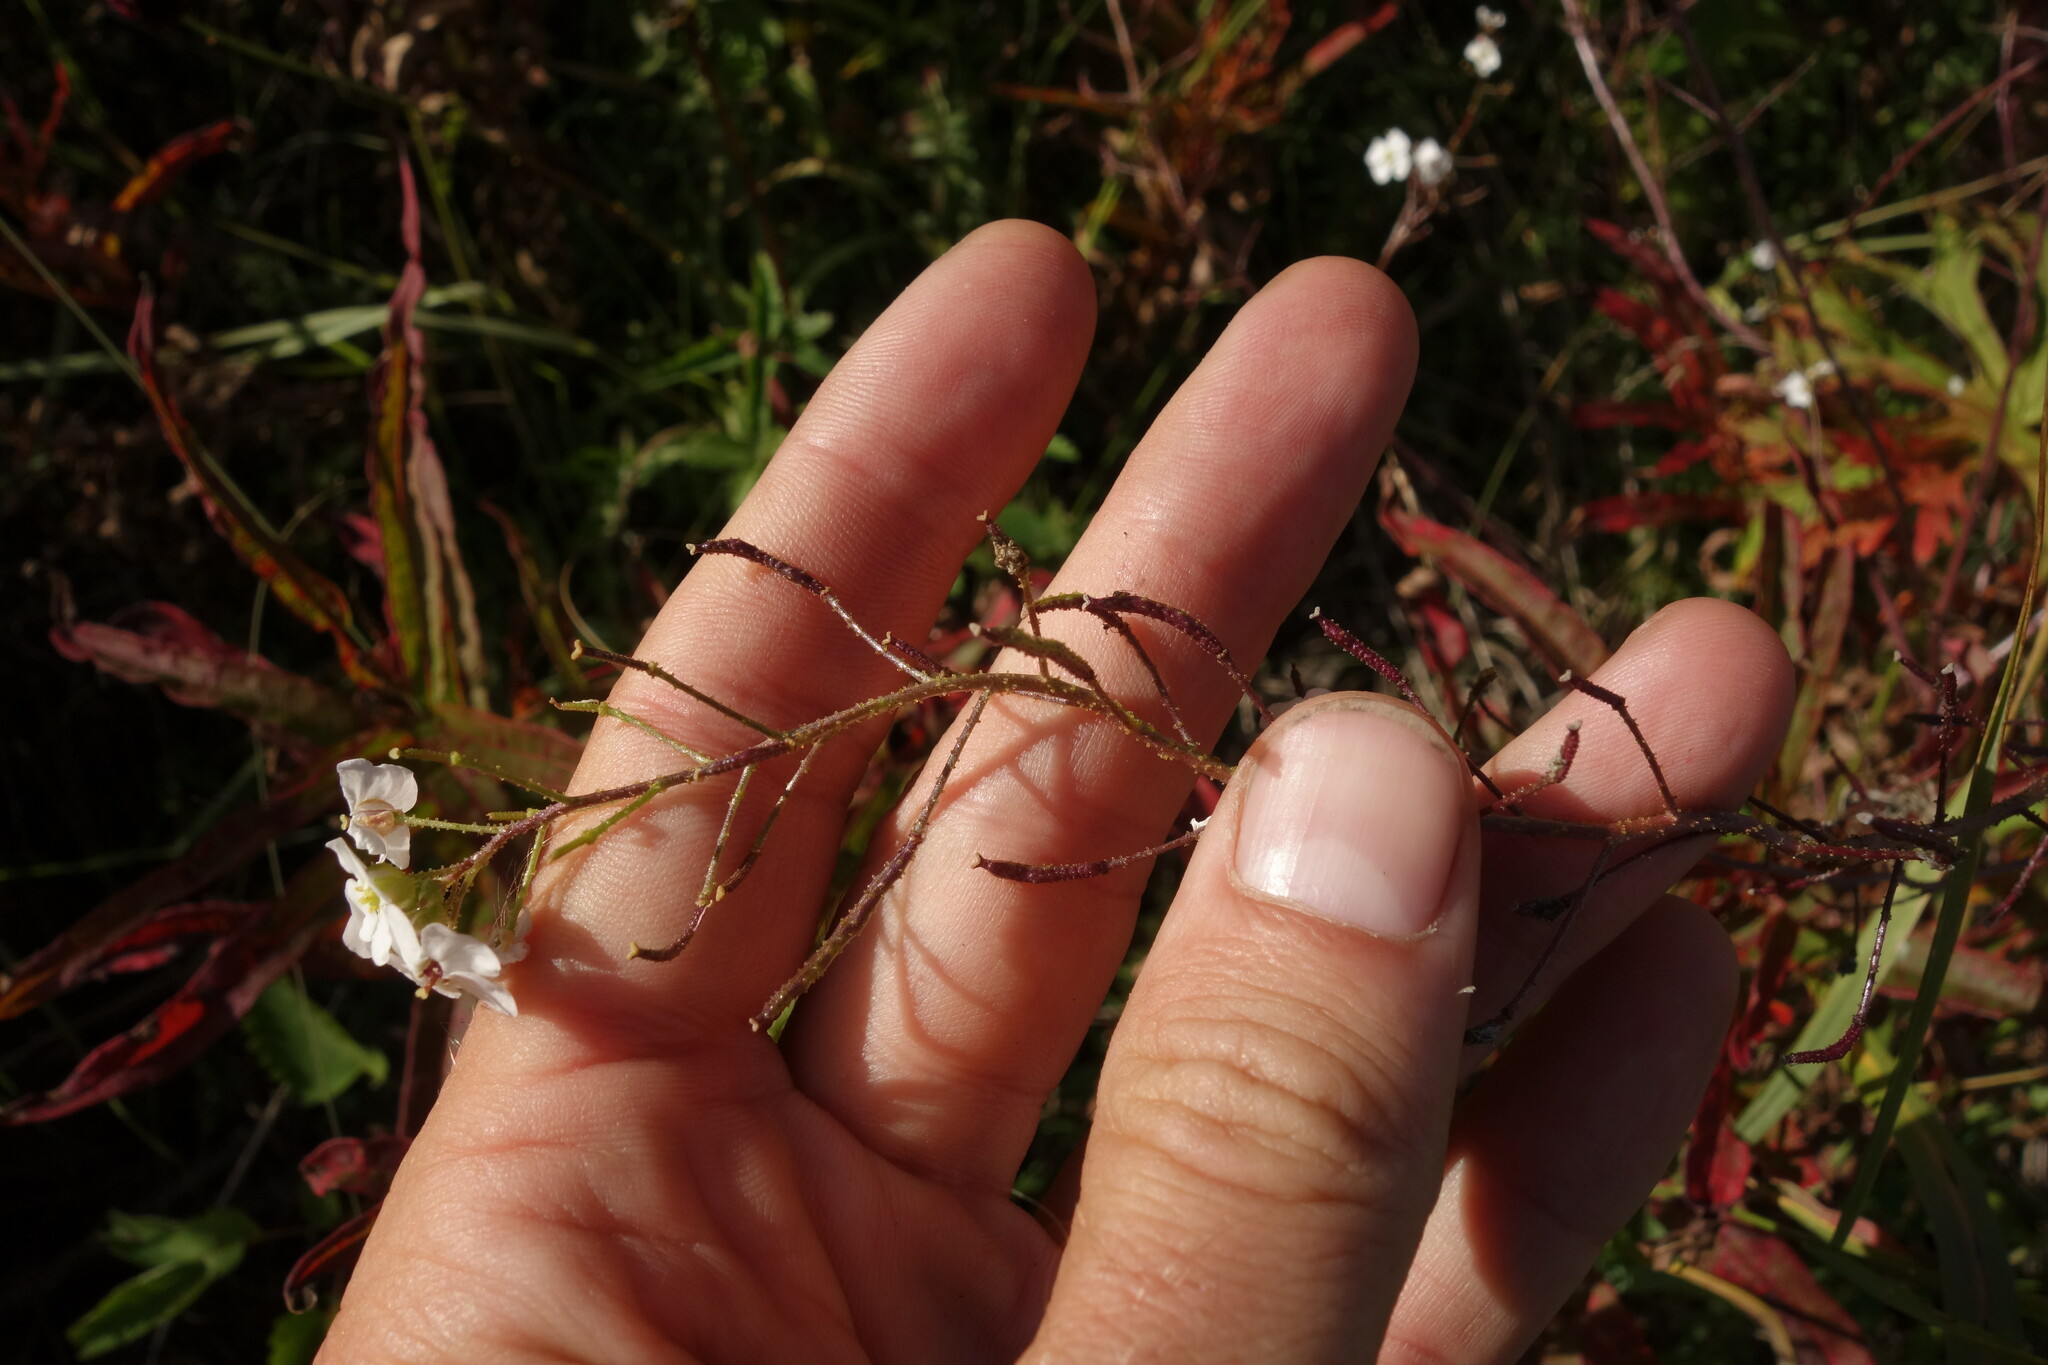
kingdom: Plantae
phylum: Tracheophyta
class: Magnoliopsida
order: Brassicales
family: Brassicaceae
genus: Dontostemon
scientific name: Dontostemon pinnatifidus
